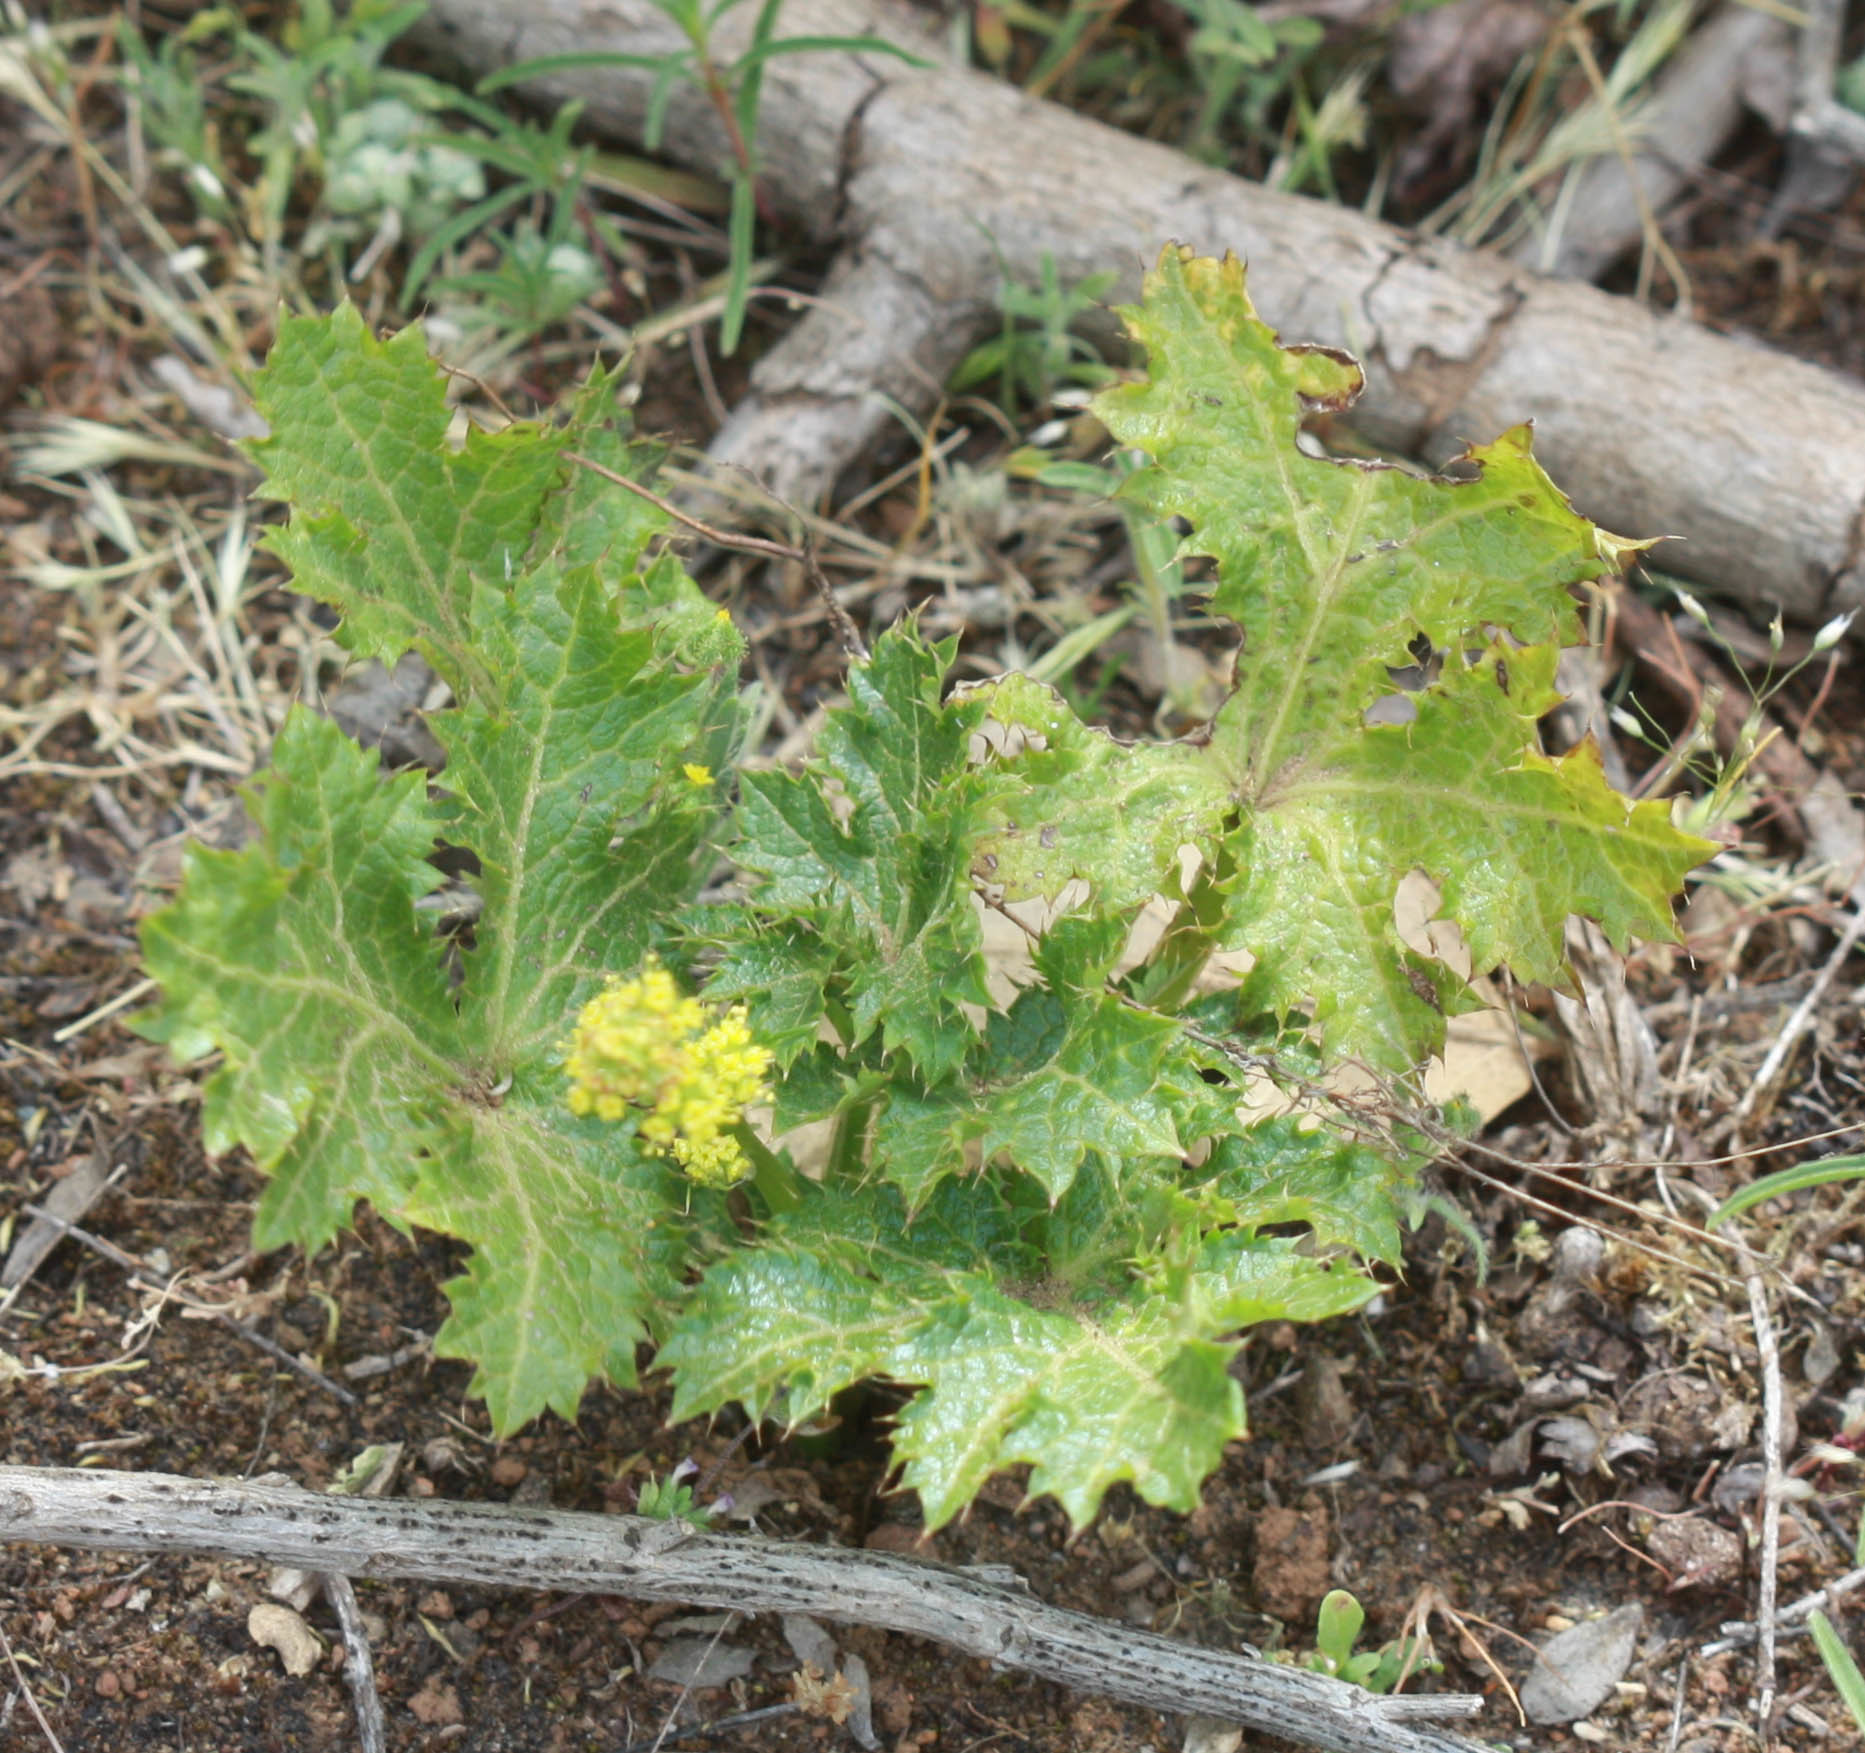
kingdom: Plantae
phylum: Tracheophyta
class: Magnoliopsida
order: Apiales
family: Apiaceae
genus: Sanicula
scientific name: Sanicula crassicaulis
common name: Western snakeroot
